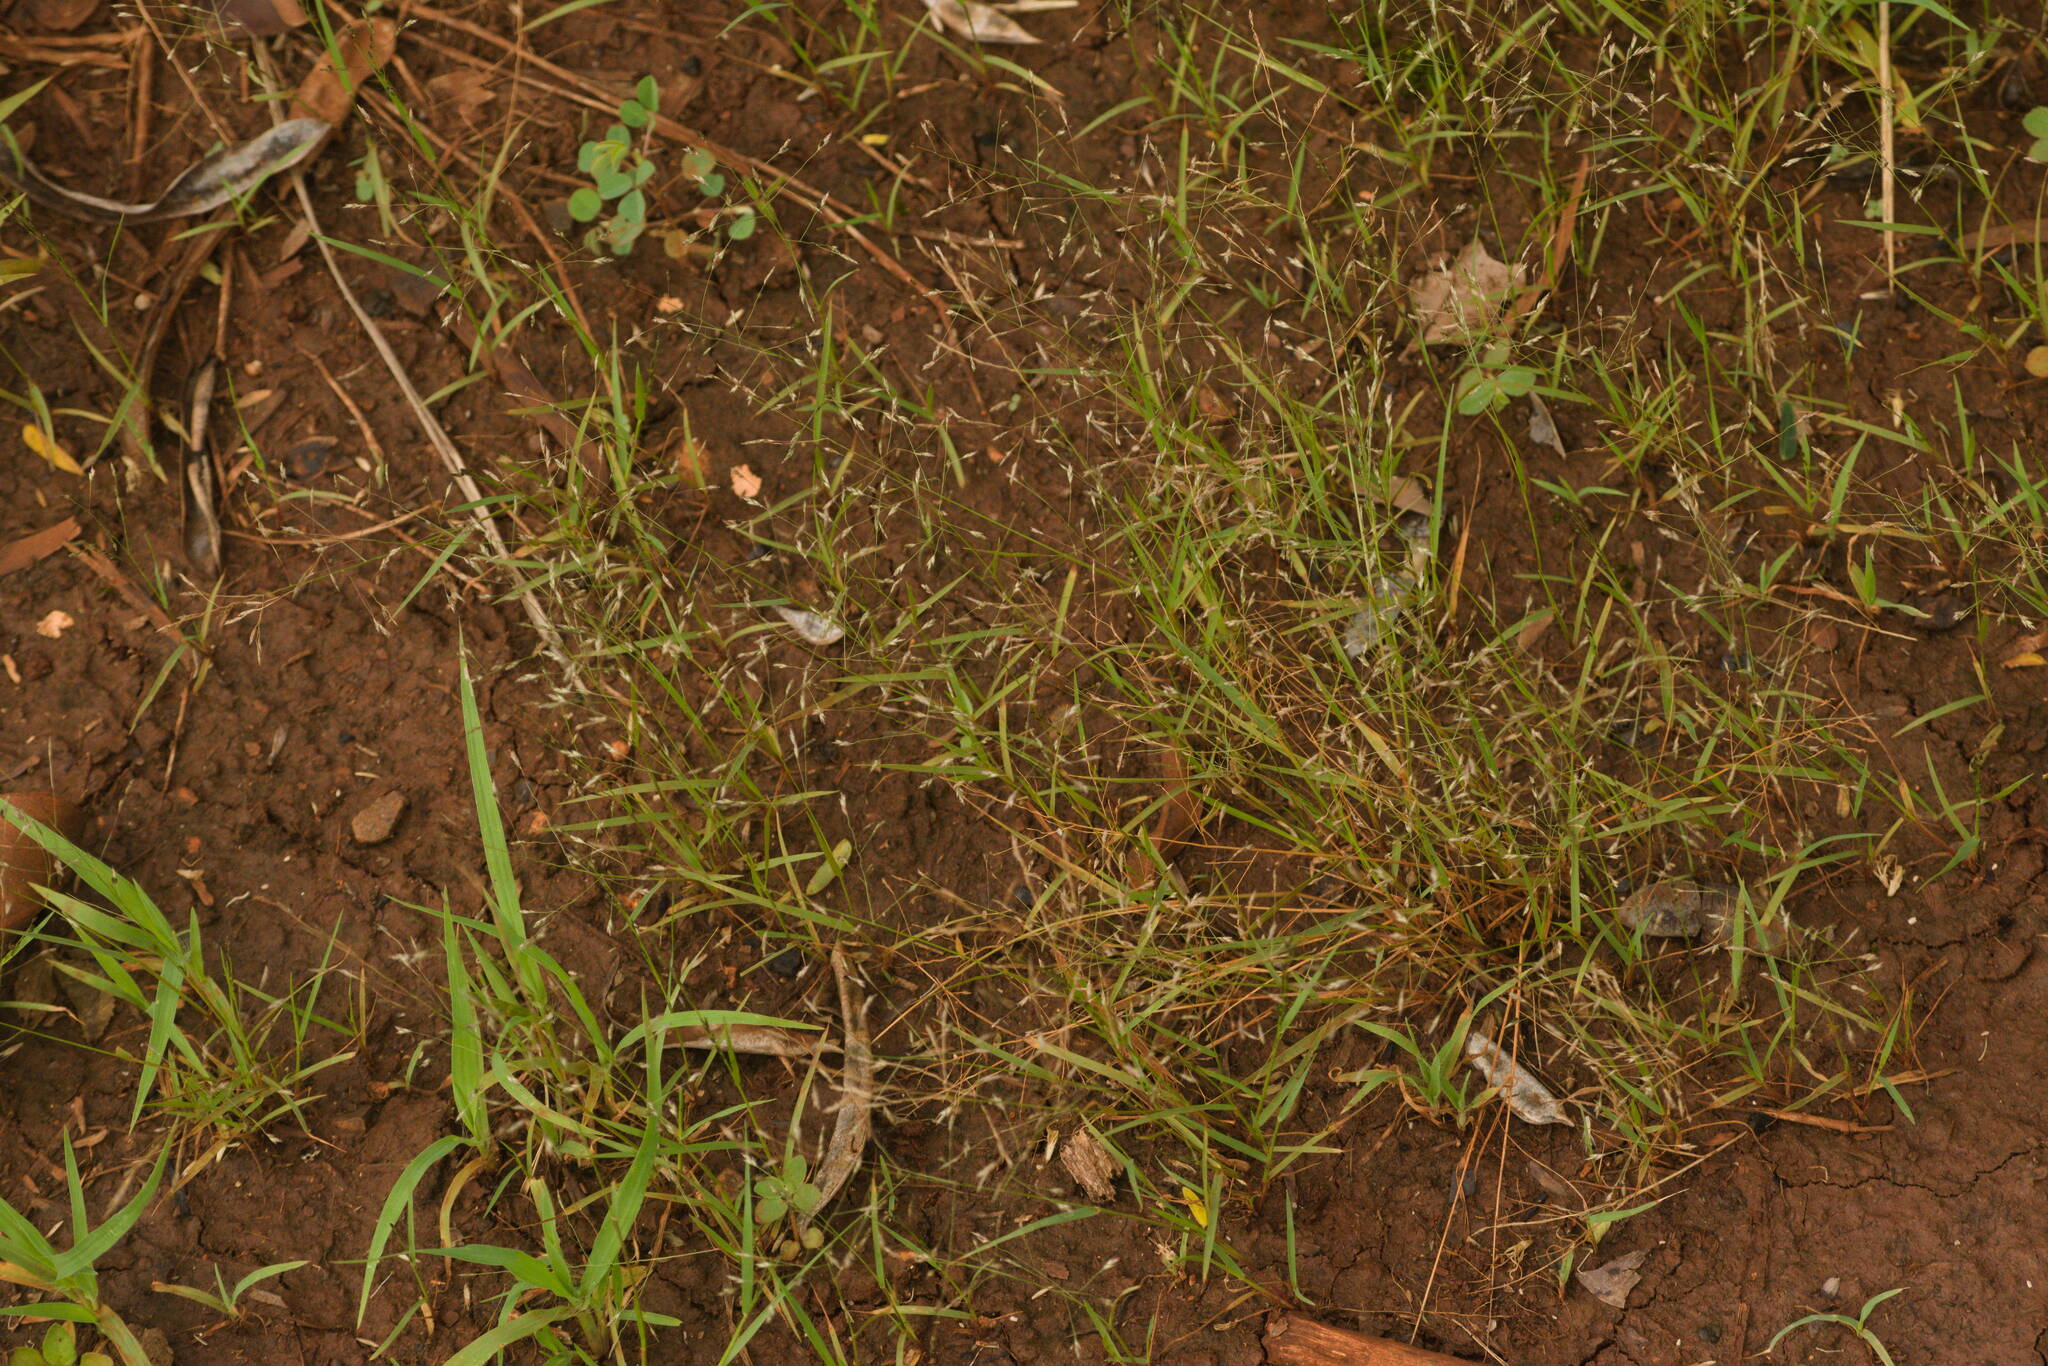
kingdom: Plantae
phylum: Tracheophyta
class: Liliopsida
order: Poales
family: Poaceae
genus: Eragrostis
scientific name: Eragrostis pilosa
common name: Indian lovegrass
